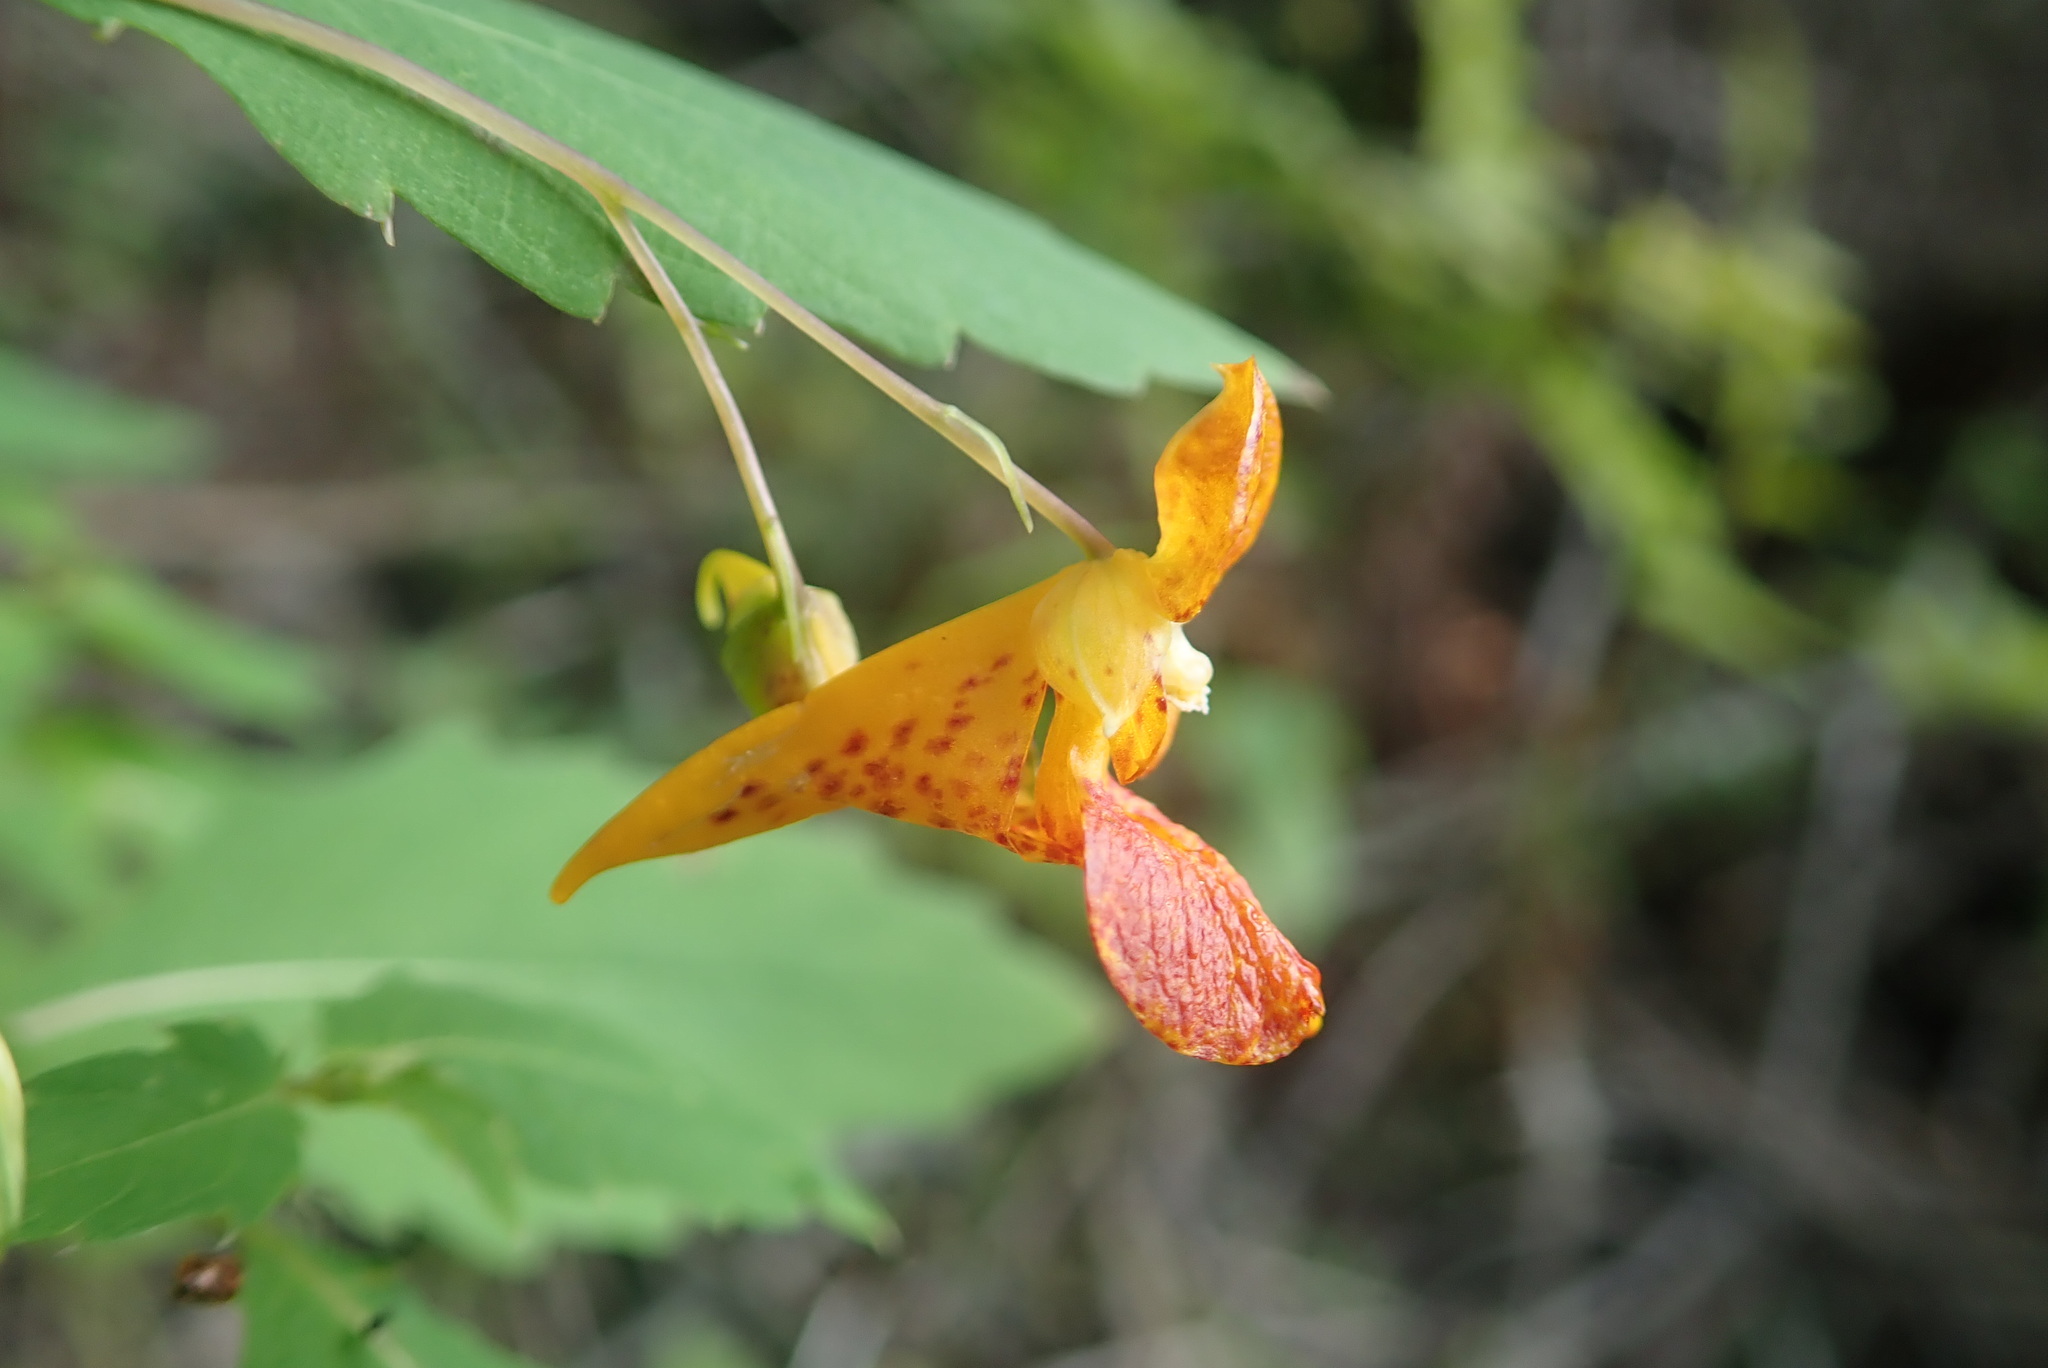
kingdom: Plantae
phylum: Tracheophyta
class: Magnoliopsida
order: Ericales
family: Balsaminaceae
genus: Impatiens
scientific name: Impatiens capensis
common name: Orange balsam
